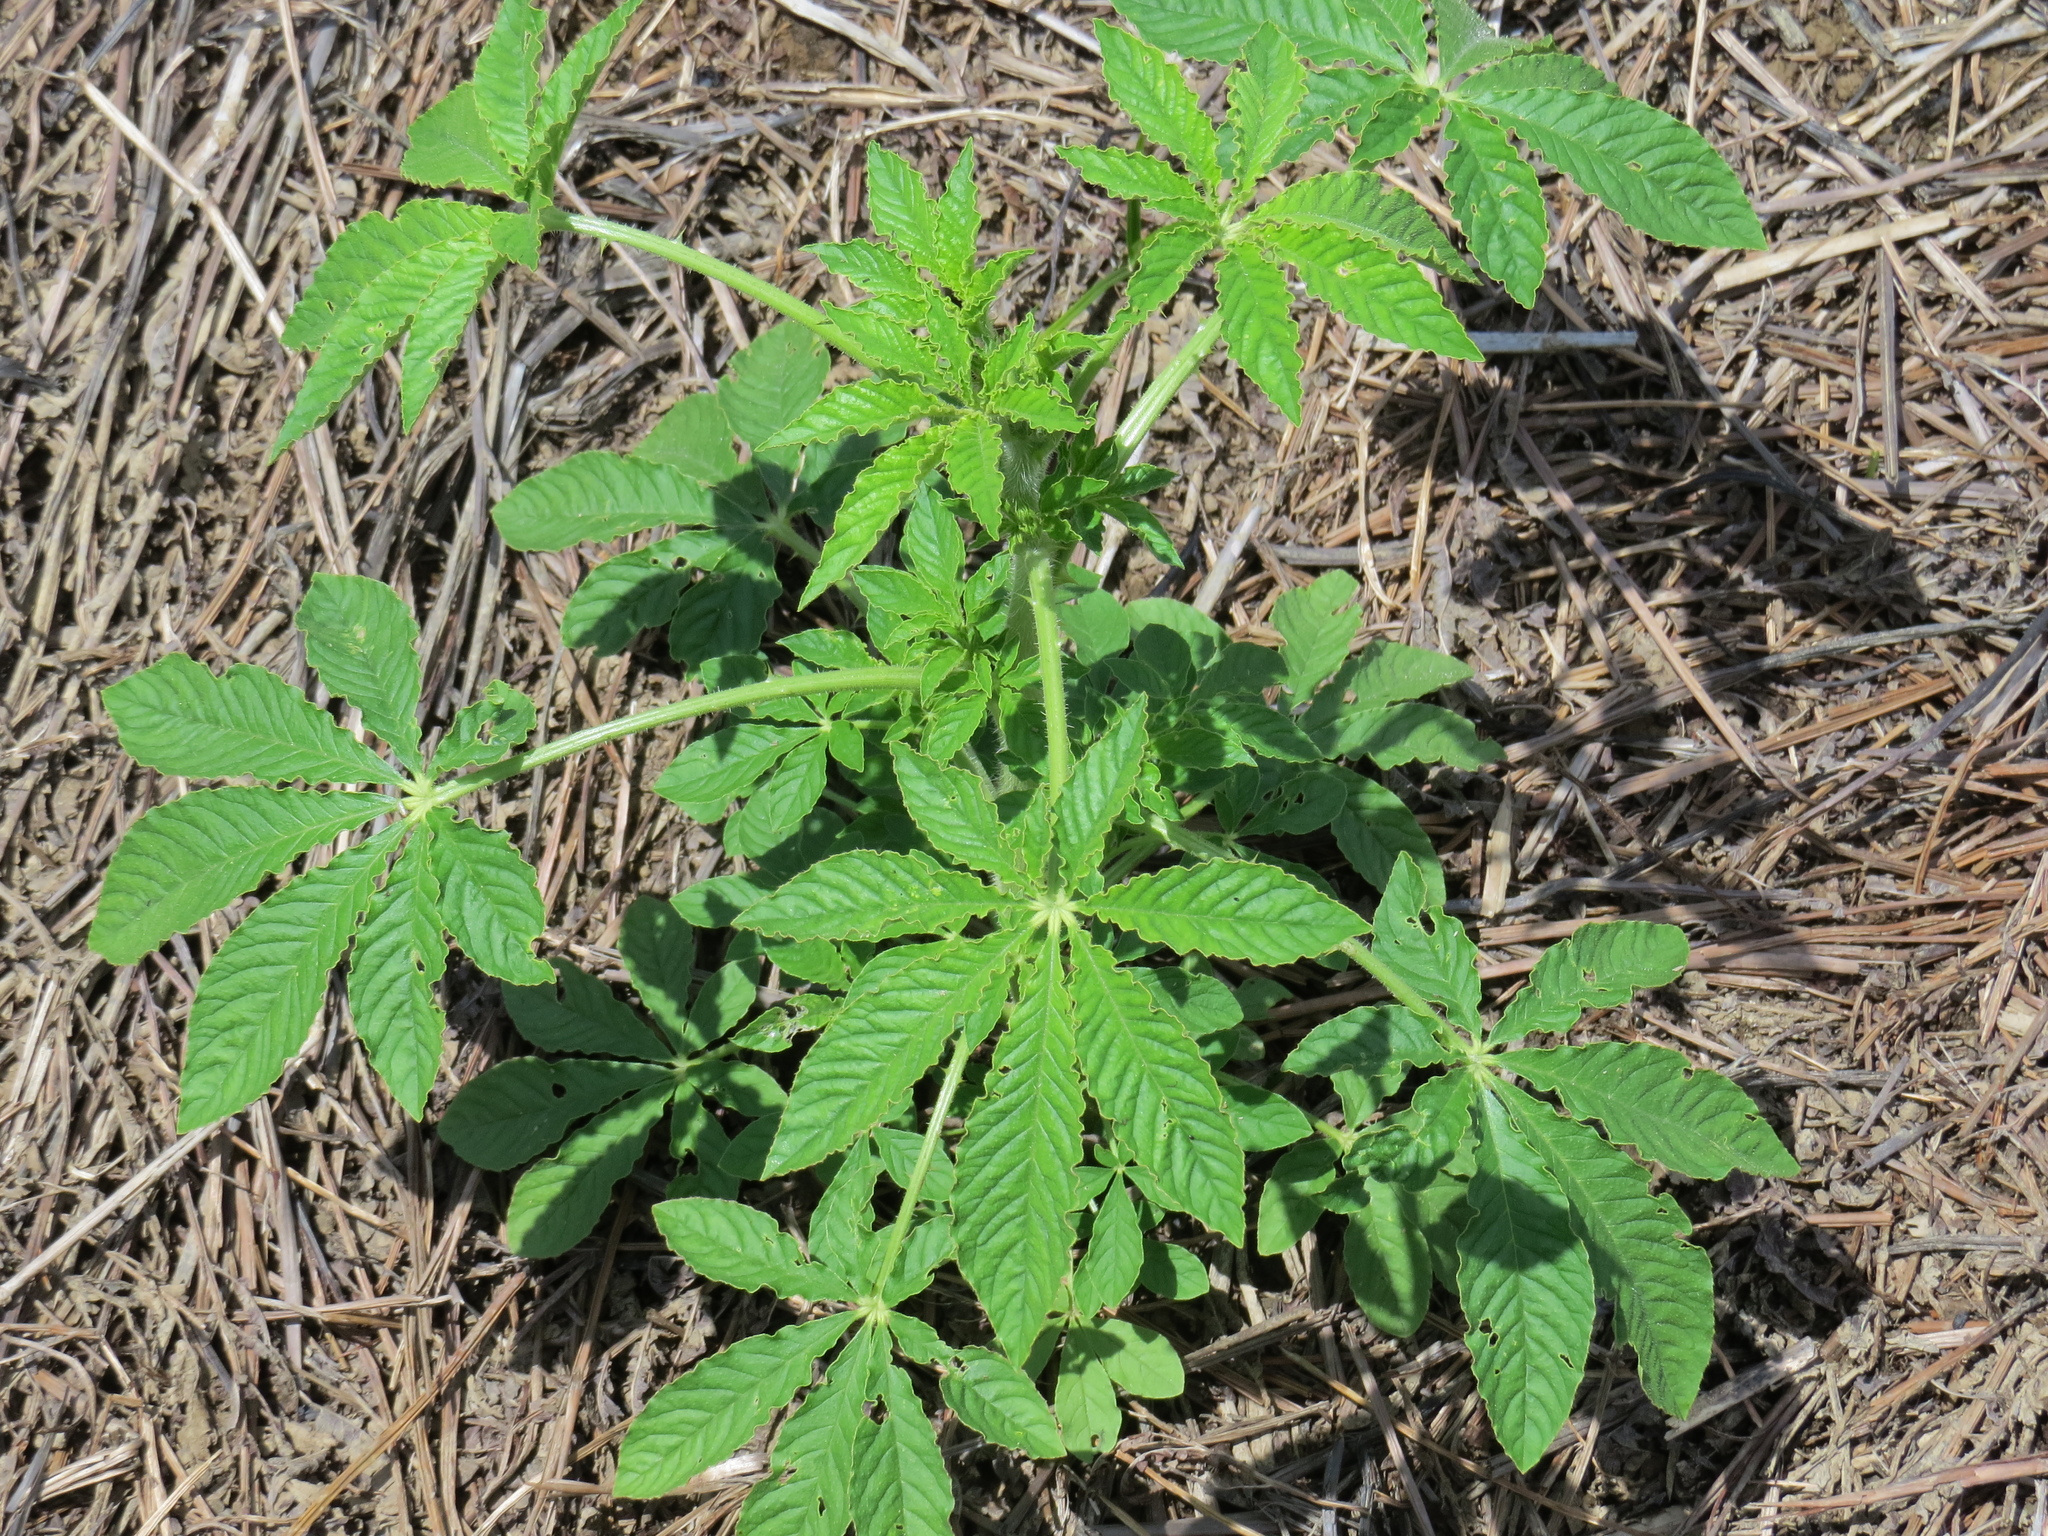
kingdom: Plantae
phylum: Tracheophyta
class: Magnoliopsida
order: Brassicales
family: Cleomaceae
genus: Tarenaya
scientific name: Tarenaya houtteana
